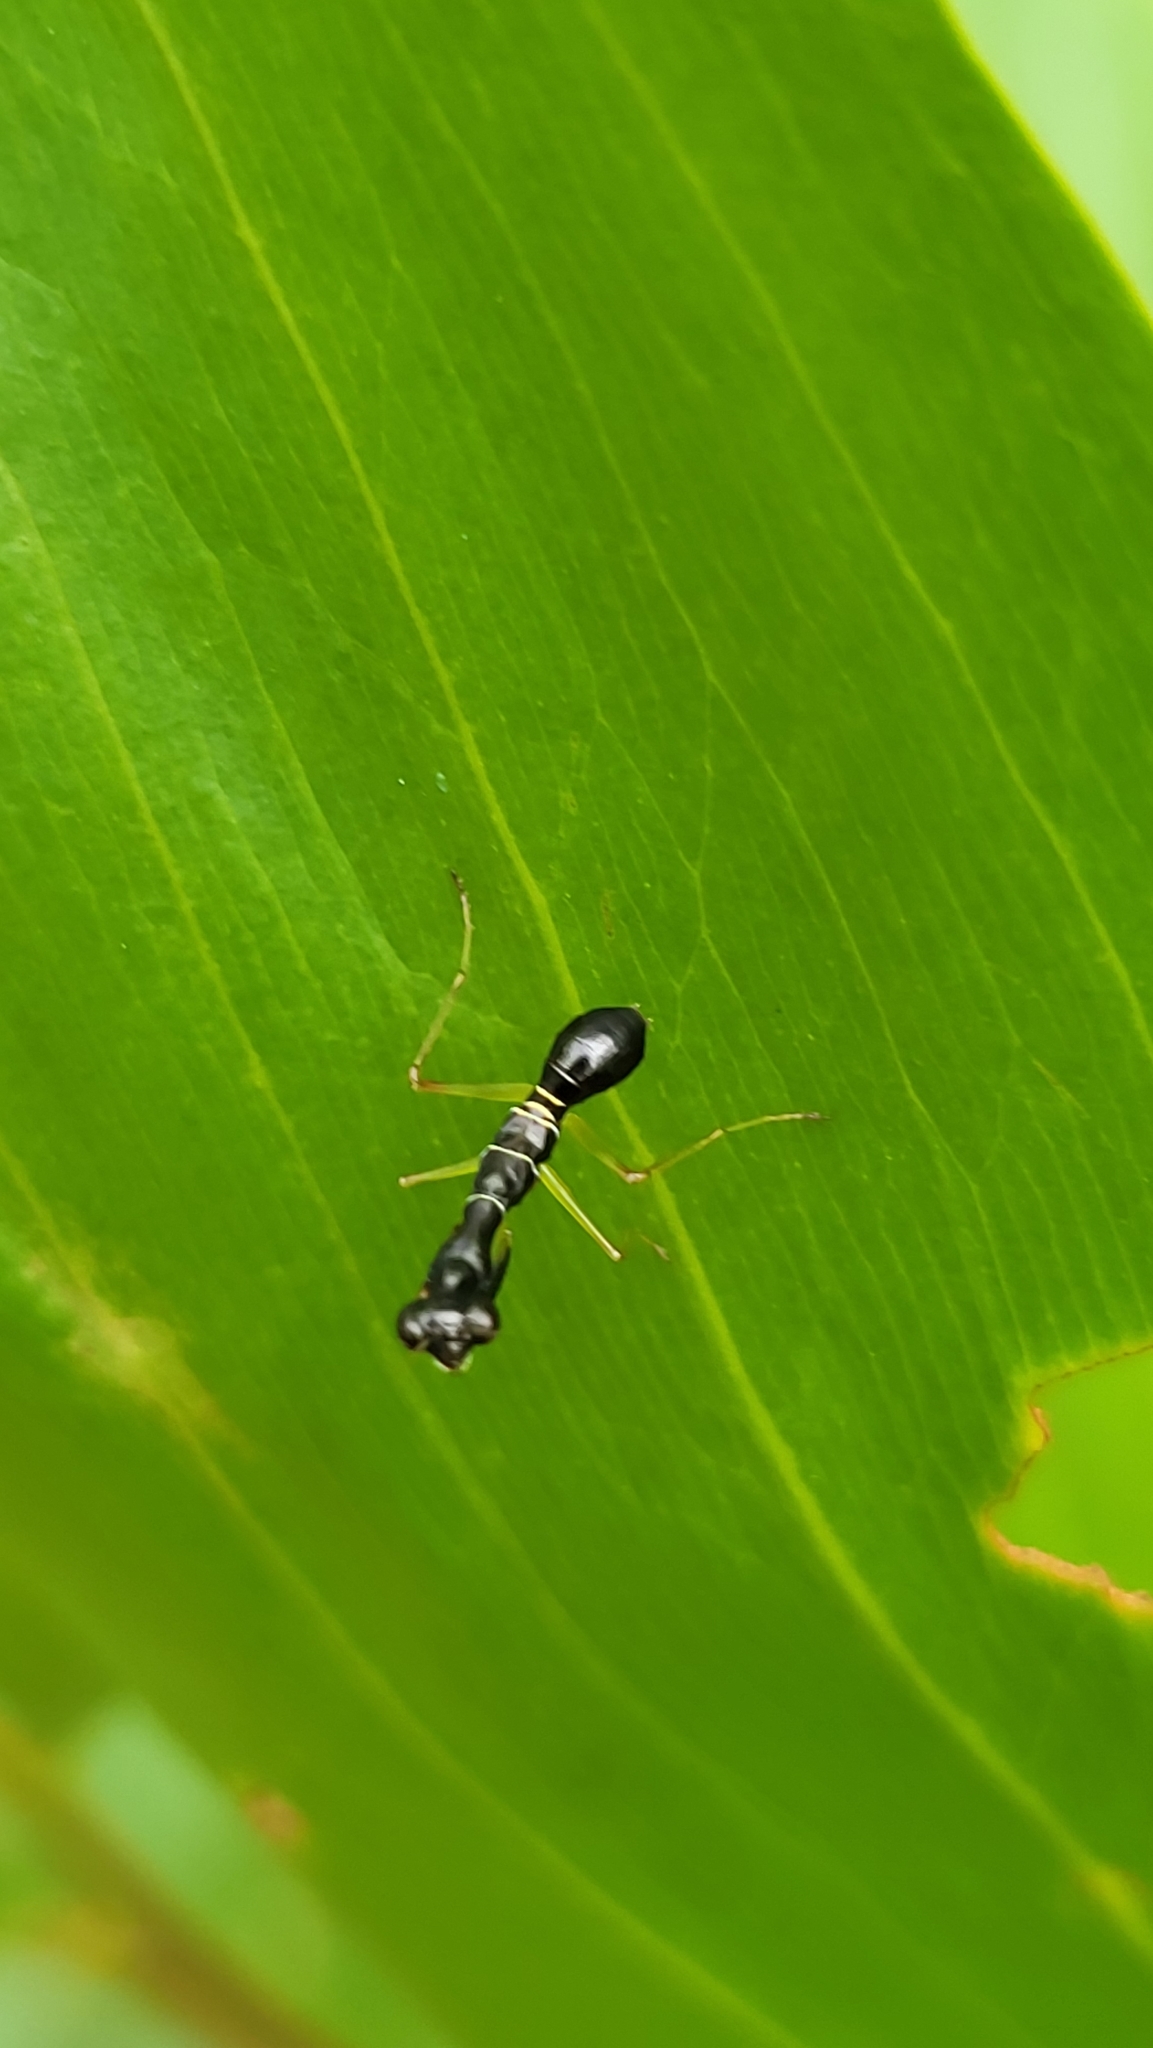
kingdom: Animalia
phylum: Arthropoda
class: Insecta
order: Mantodea
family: Hymenopodidae
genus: Odontomantis
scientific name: Odontomantis planiceps
